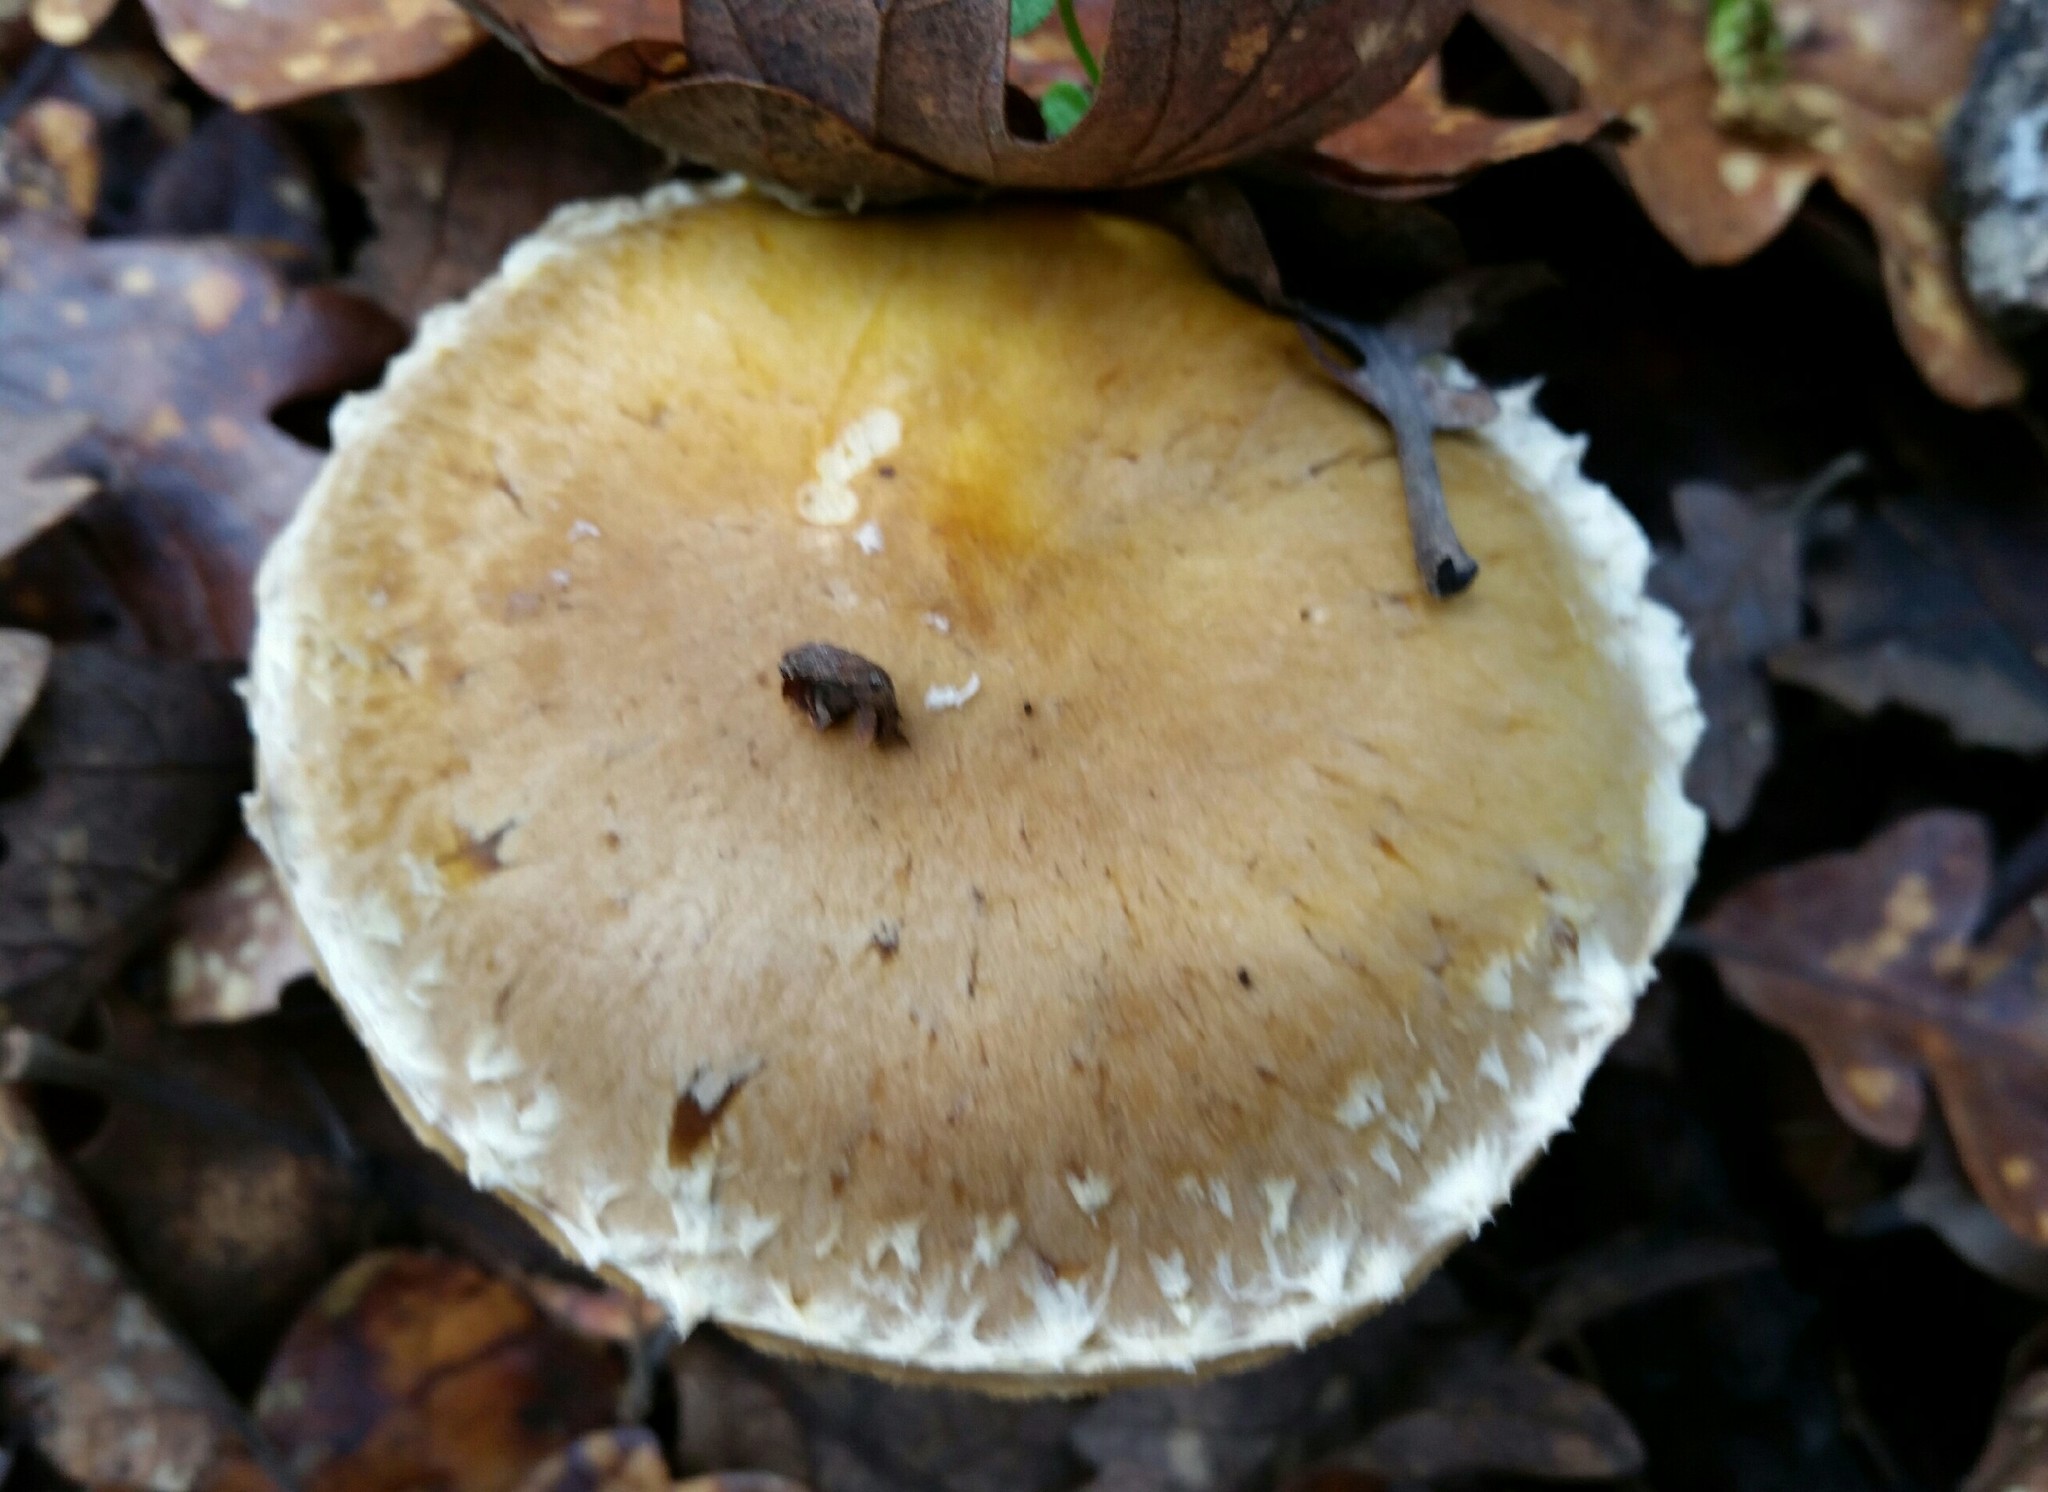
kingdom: Fungi
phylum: Basidiomycota
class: Agaricomycetes
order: Agaricales
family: Agaricaceae
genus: Floccularia
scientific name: Floccularia albolanaripes
